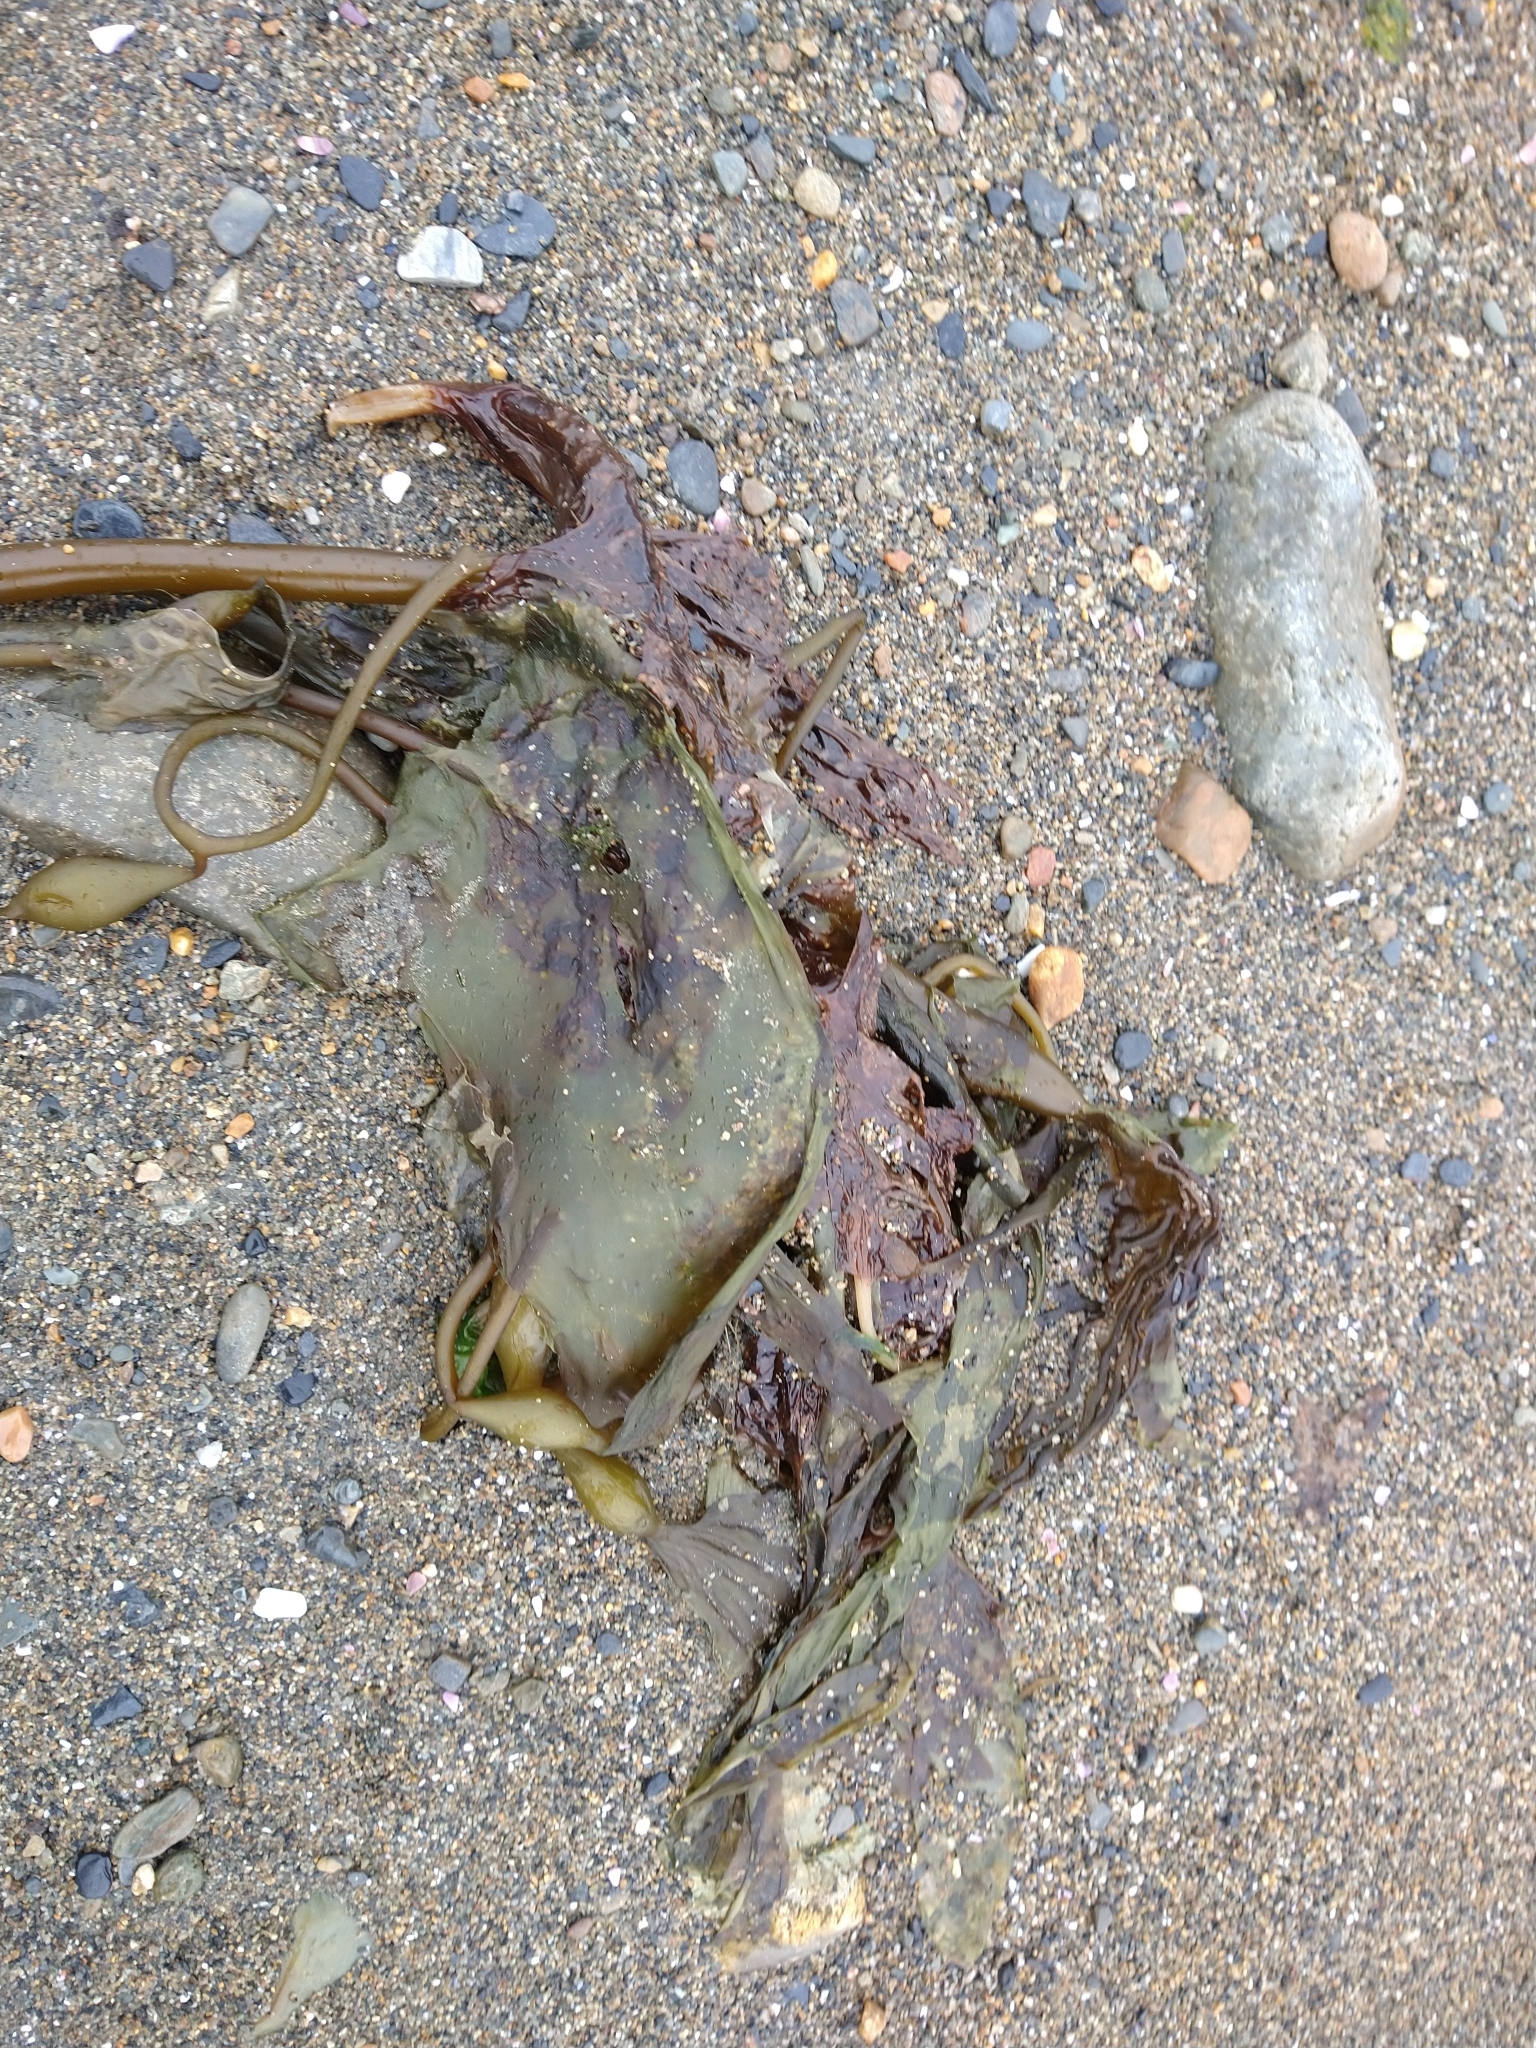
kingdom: Chromista
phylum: Ochrophyta
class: Phaeophyceae
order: Laminariales
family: Laminariaceae
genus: Macrocystis
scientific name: Macrocystis pyrifera
